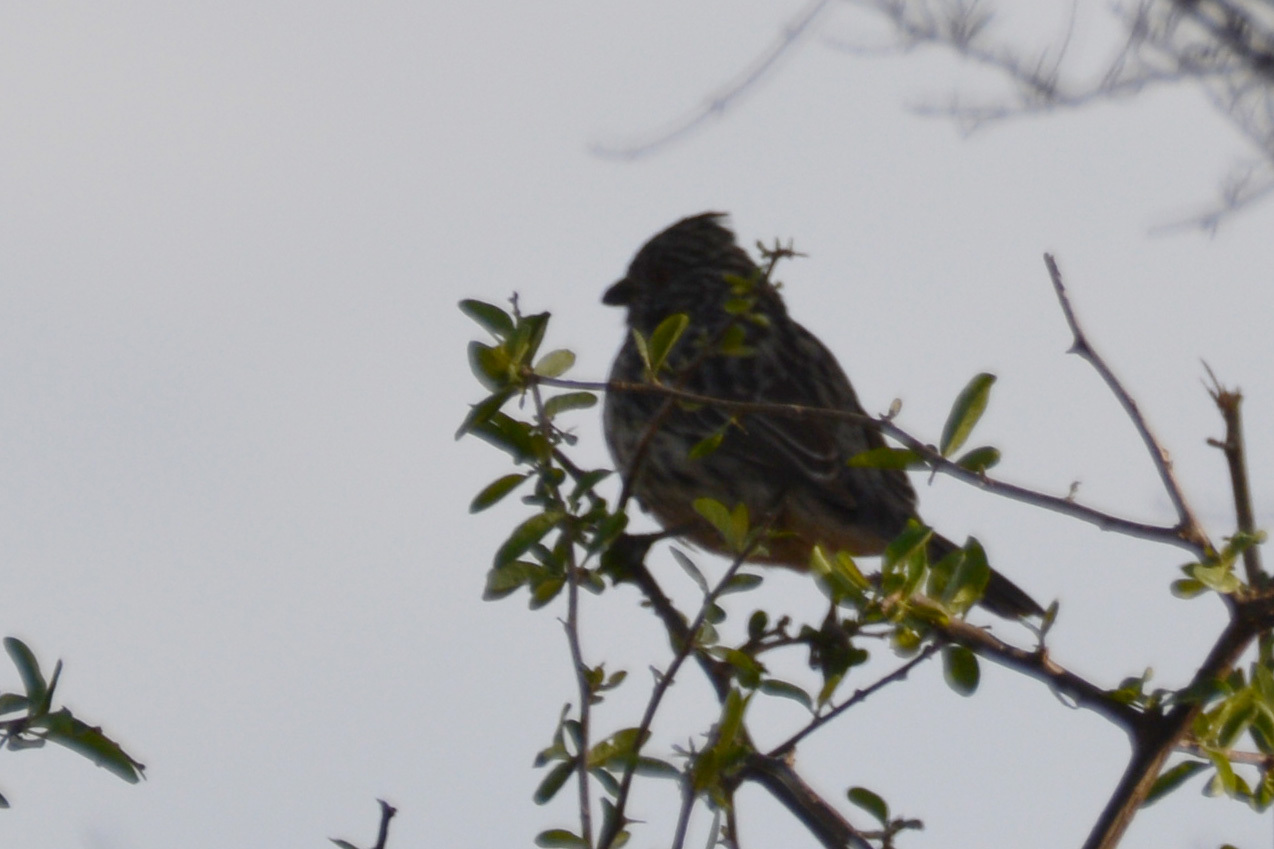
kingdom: Animalia
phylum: Chordata
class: Aves
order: Passeriformes
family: Cotingidae
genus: Phytotoma
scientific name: Phytotoma rutila
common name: White-tipped plantcutter
